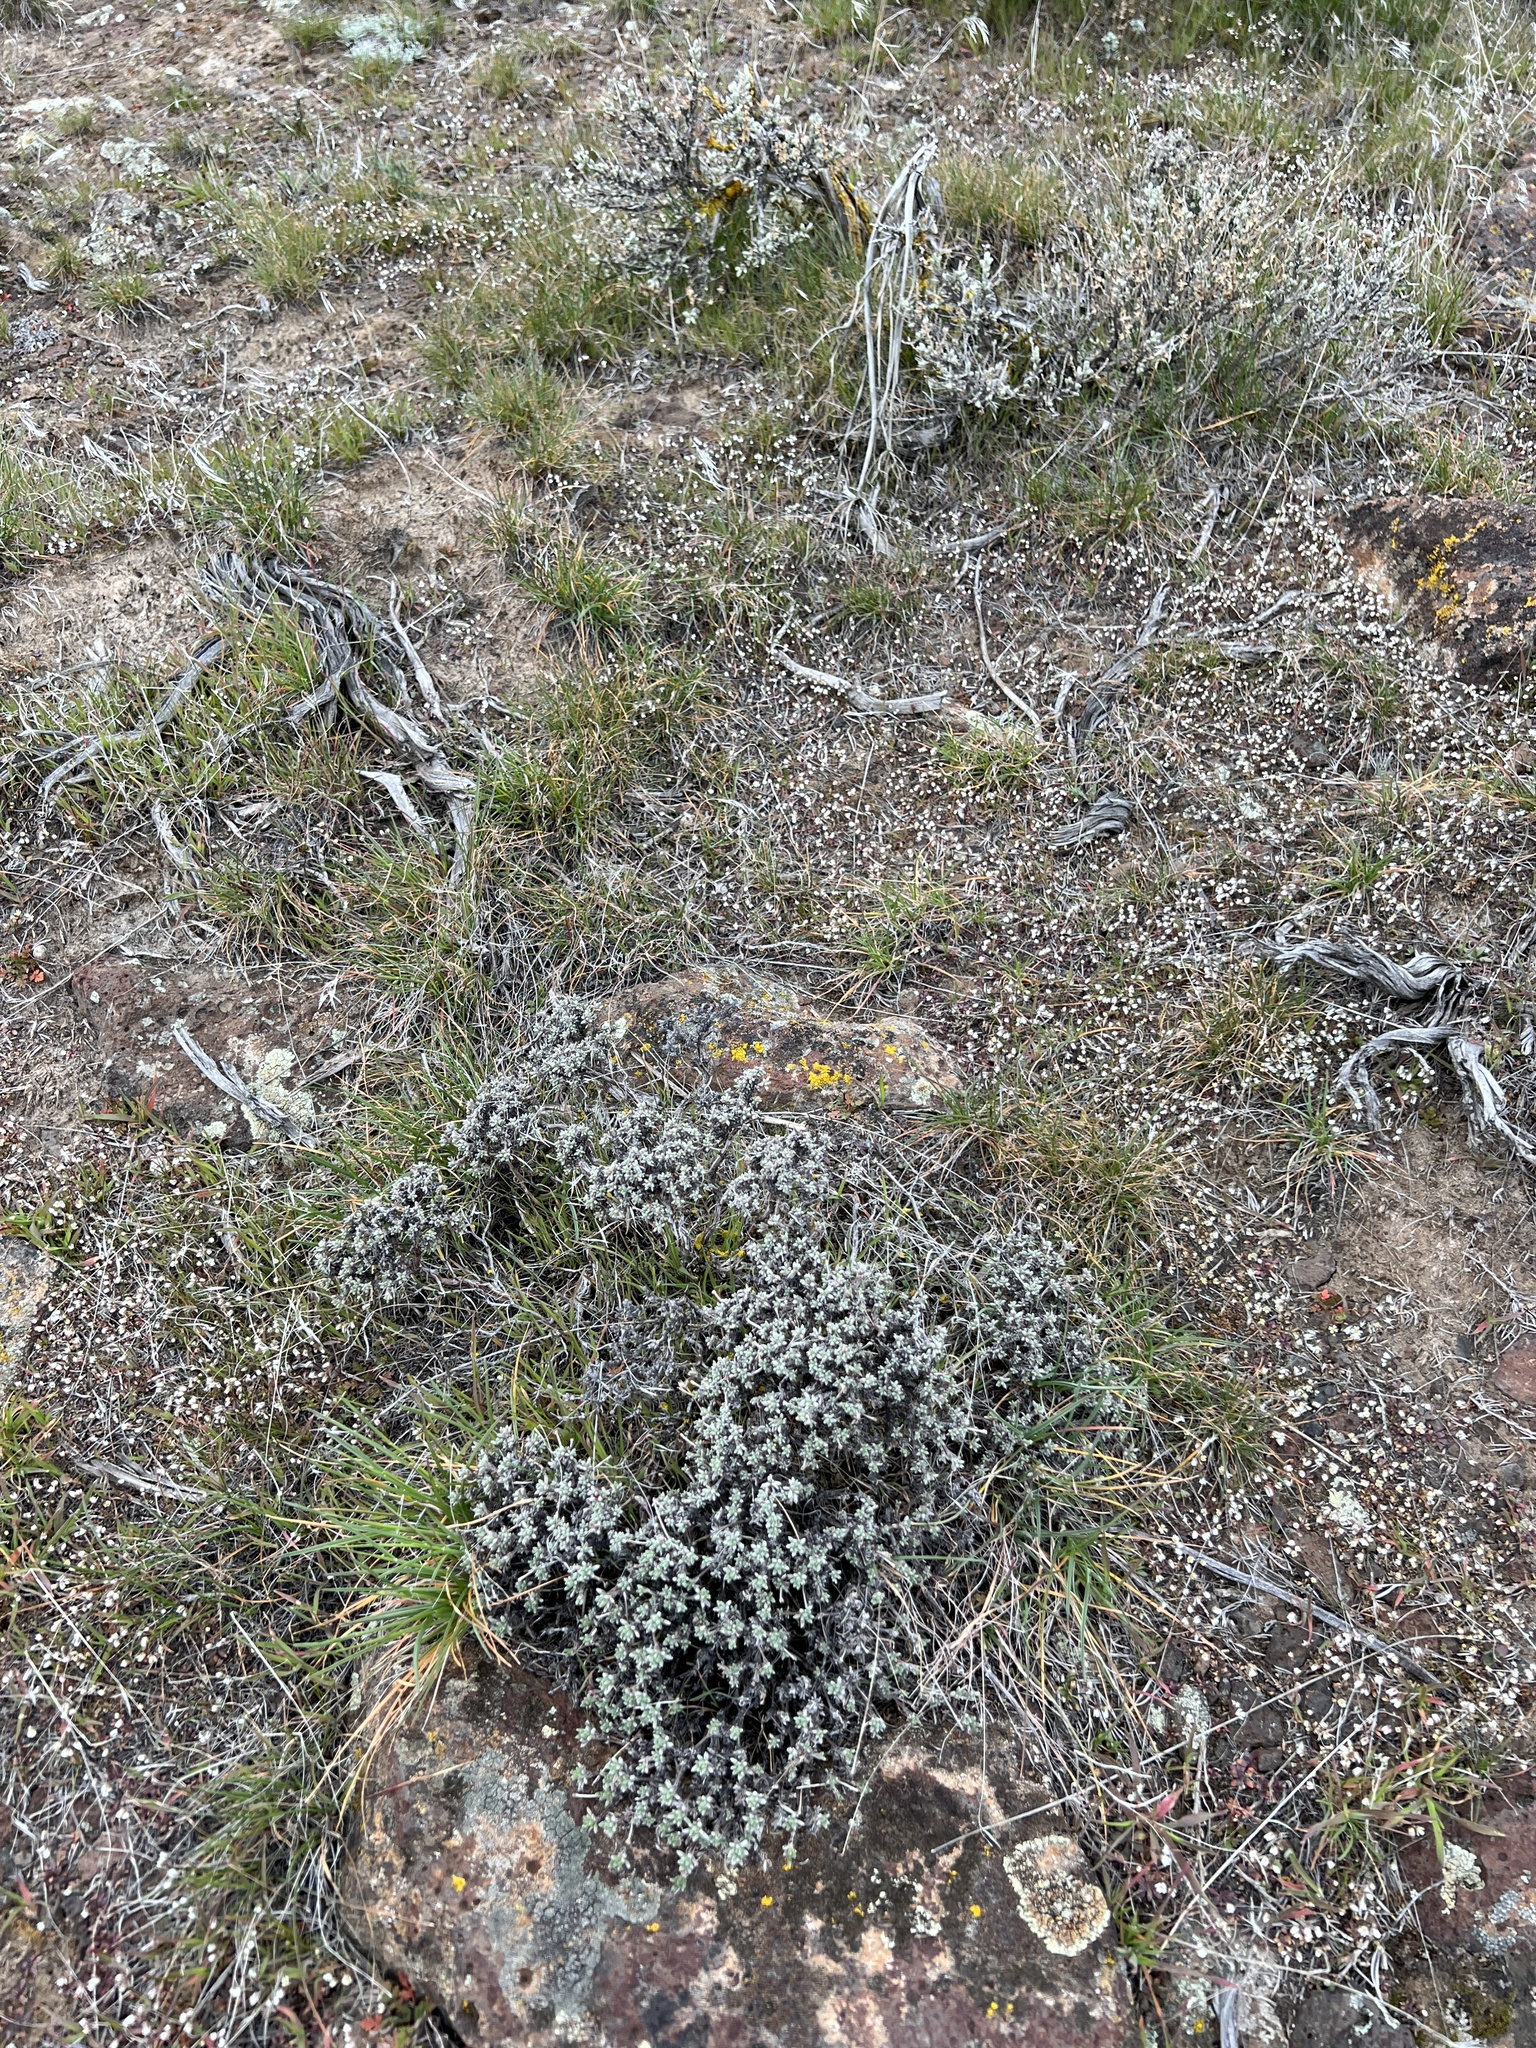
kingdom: Plantae
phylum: Tracheophyta
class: Magnoliopsida
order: Caryophyllales
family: Polygonaceae
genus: Eriogonum
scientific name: Eriogonum thymoides
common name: Thyme-leaf wild buckwheat
